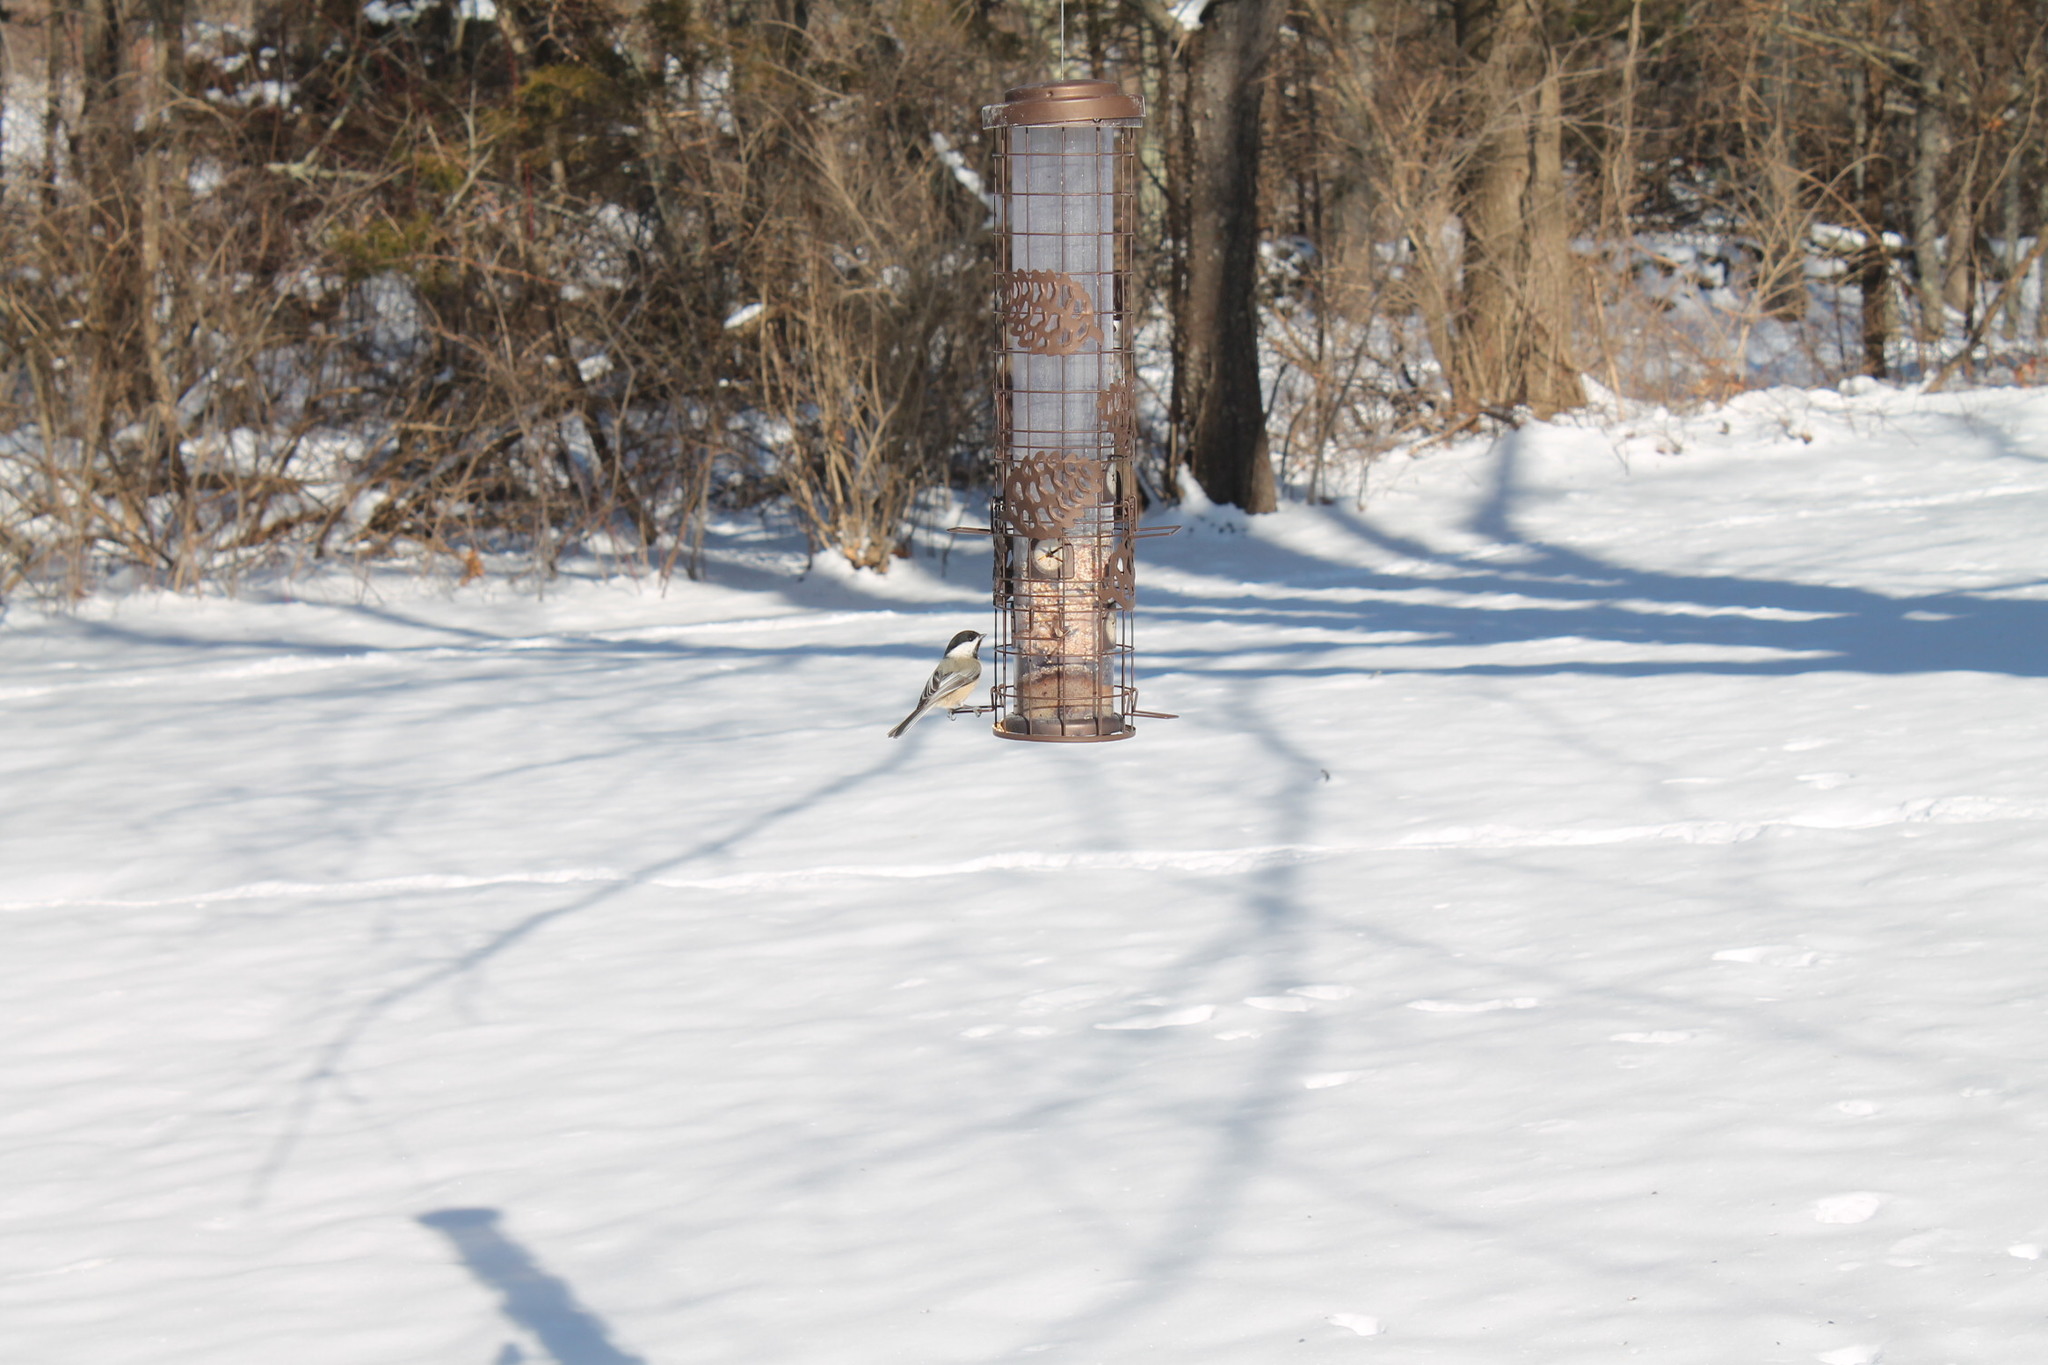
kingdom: Animalia
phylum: Chordata
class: Aves
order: Passeriformes
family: Paridae
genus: Poecile
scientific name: Poecile atricapillus
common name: Black-capped chickadee
